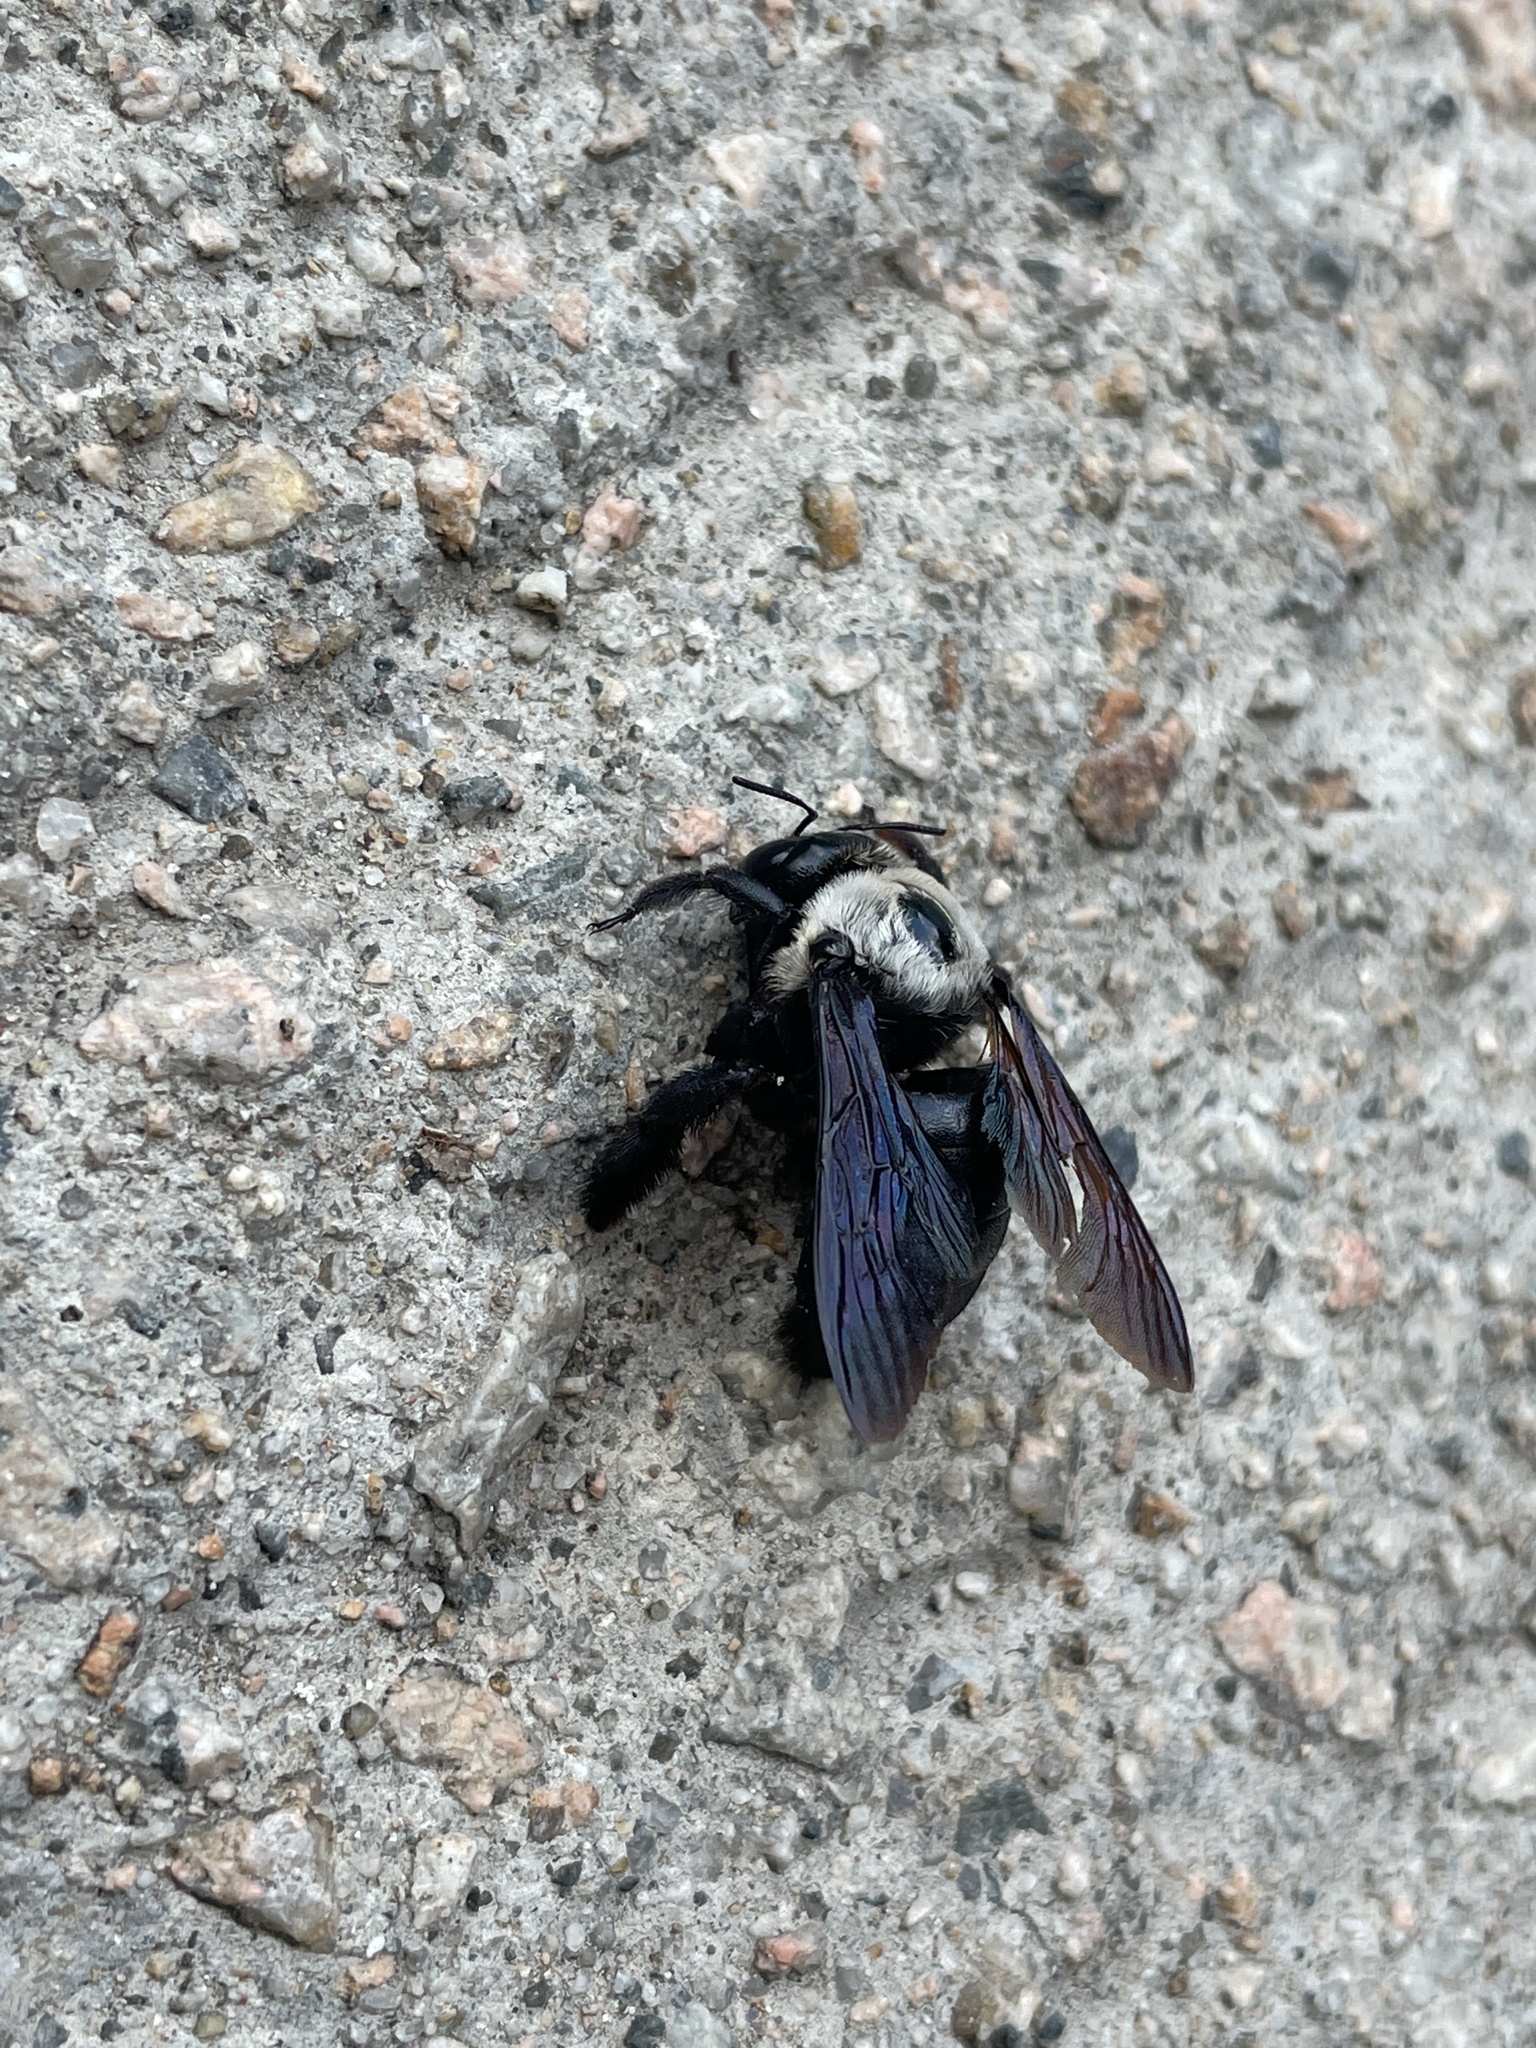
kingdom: Animalia
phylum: Arthropoda
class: Insecta
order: Hymenoptera
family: Apidae
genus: Xylocopa
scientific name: Xylocopa phalothorax
